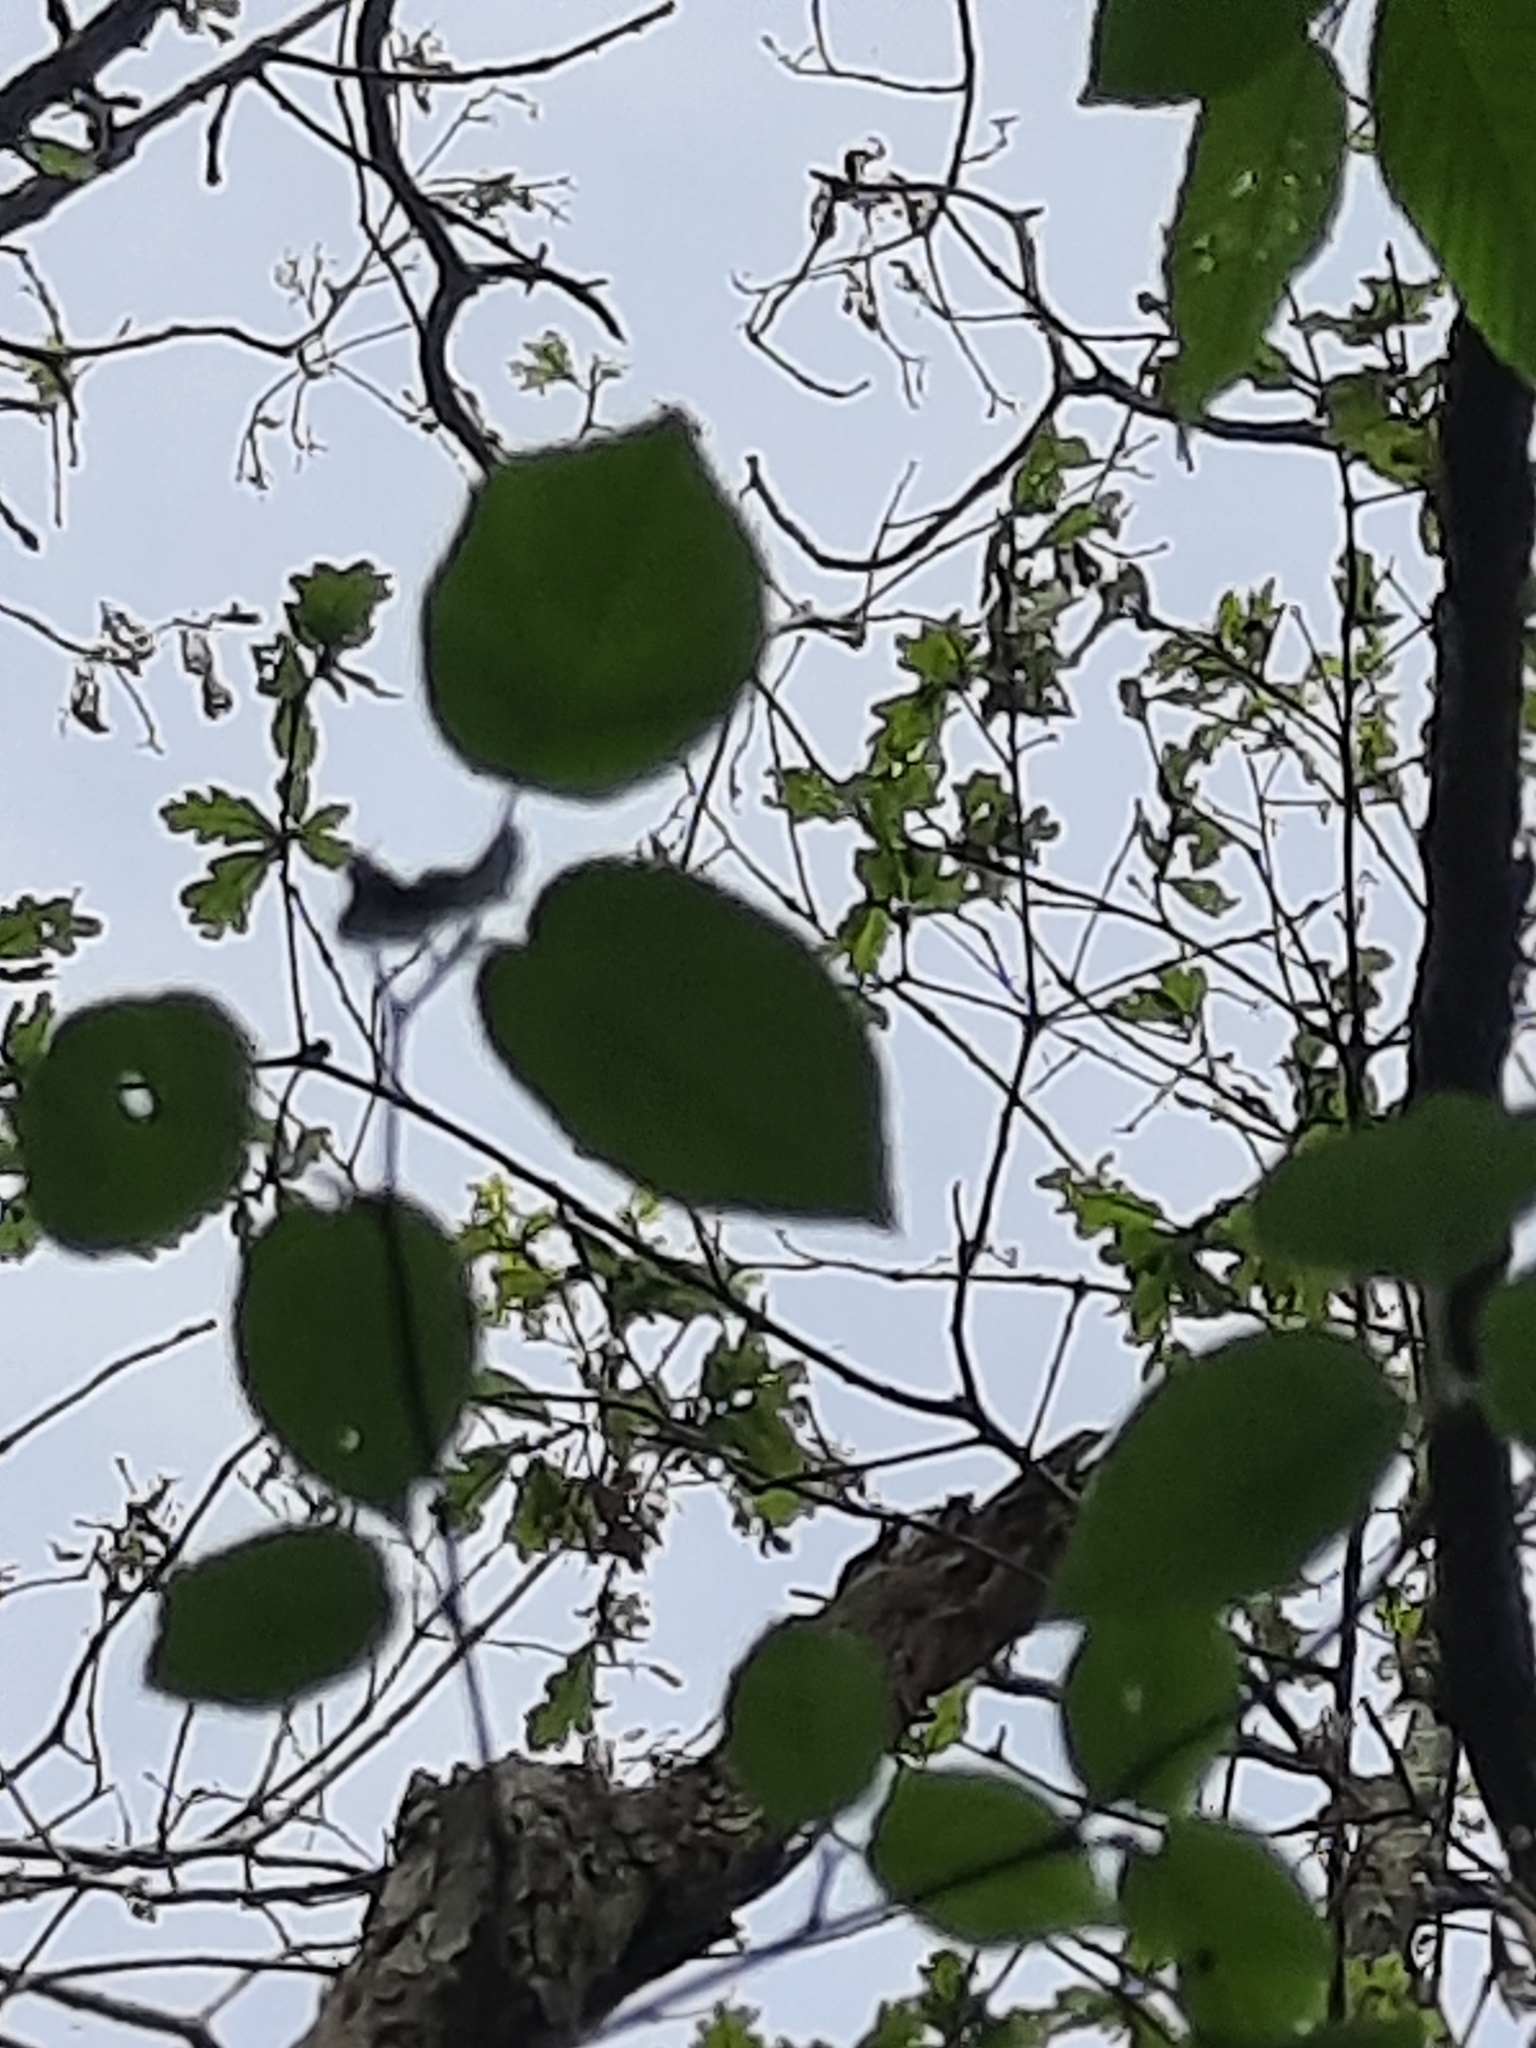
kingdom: Fungi
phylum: Ascomycota
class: Dothideomycetes
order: Venturiales
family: Venturiaceae
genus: Apiosporina
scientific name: Apiosporina collinsii
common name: Black leaf
